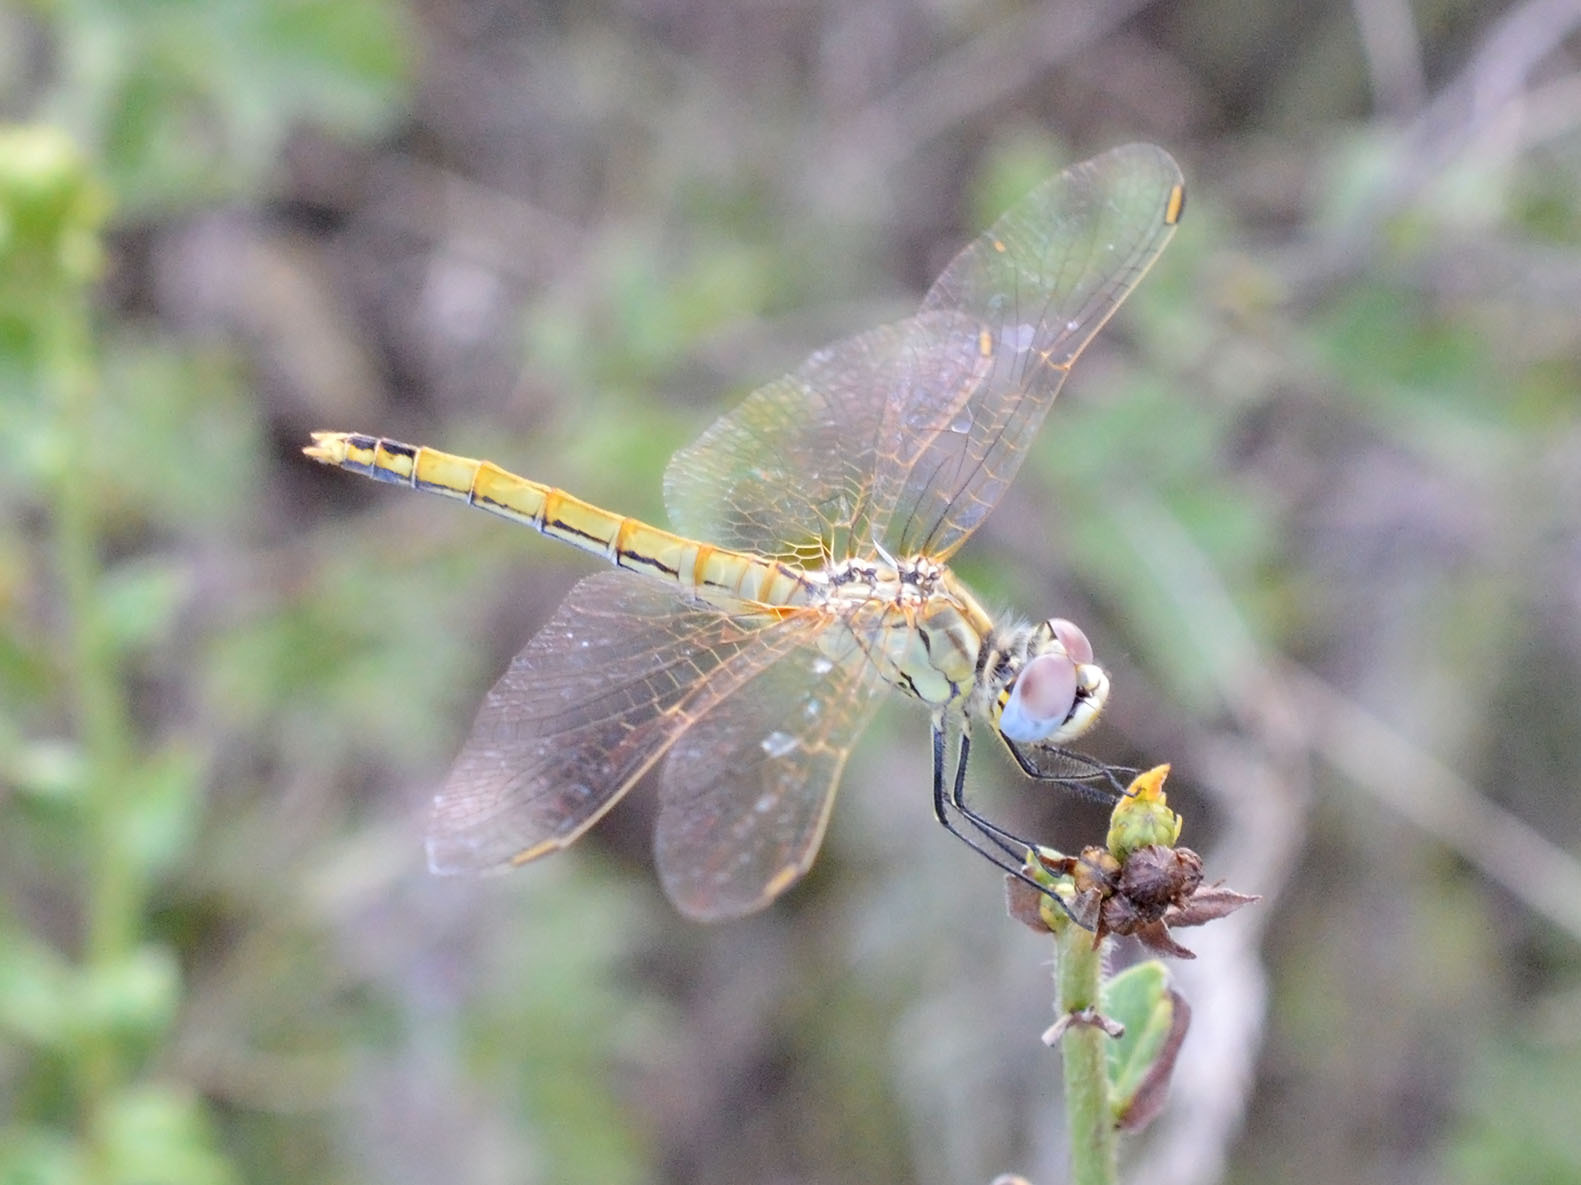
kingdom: Animalia
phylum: Arthropoda
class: Insecta
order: Odonata
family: Libellulidae
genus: Sympetrum
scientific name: Sympetrum fonscolombii
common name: Red-veined darter
